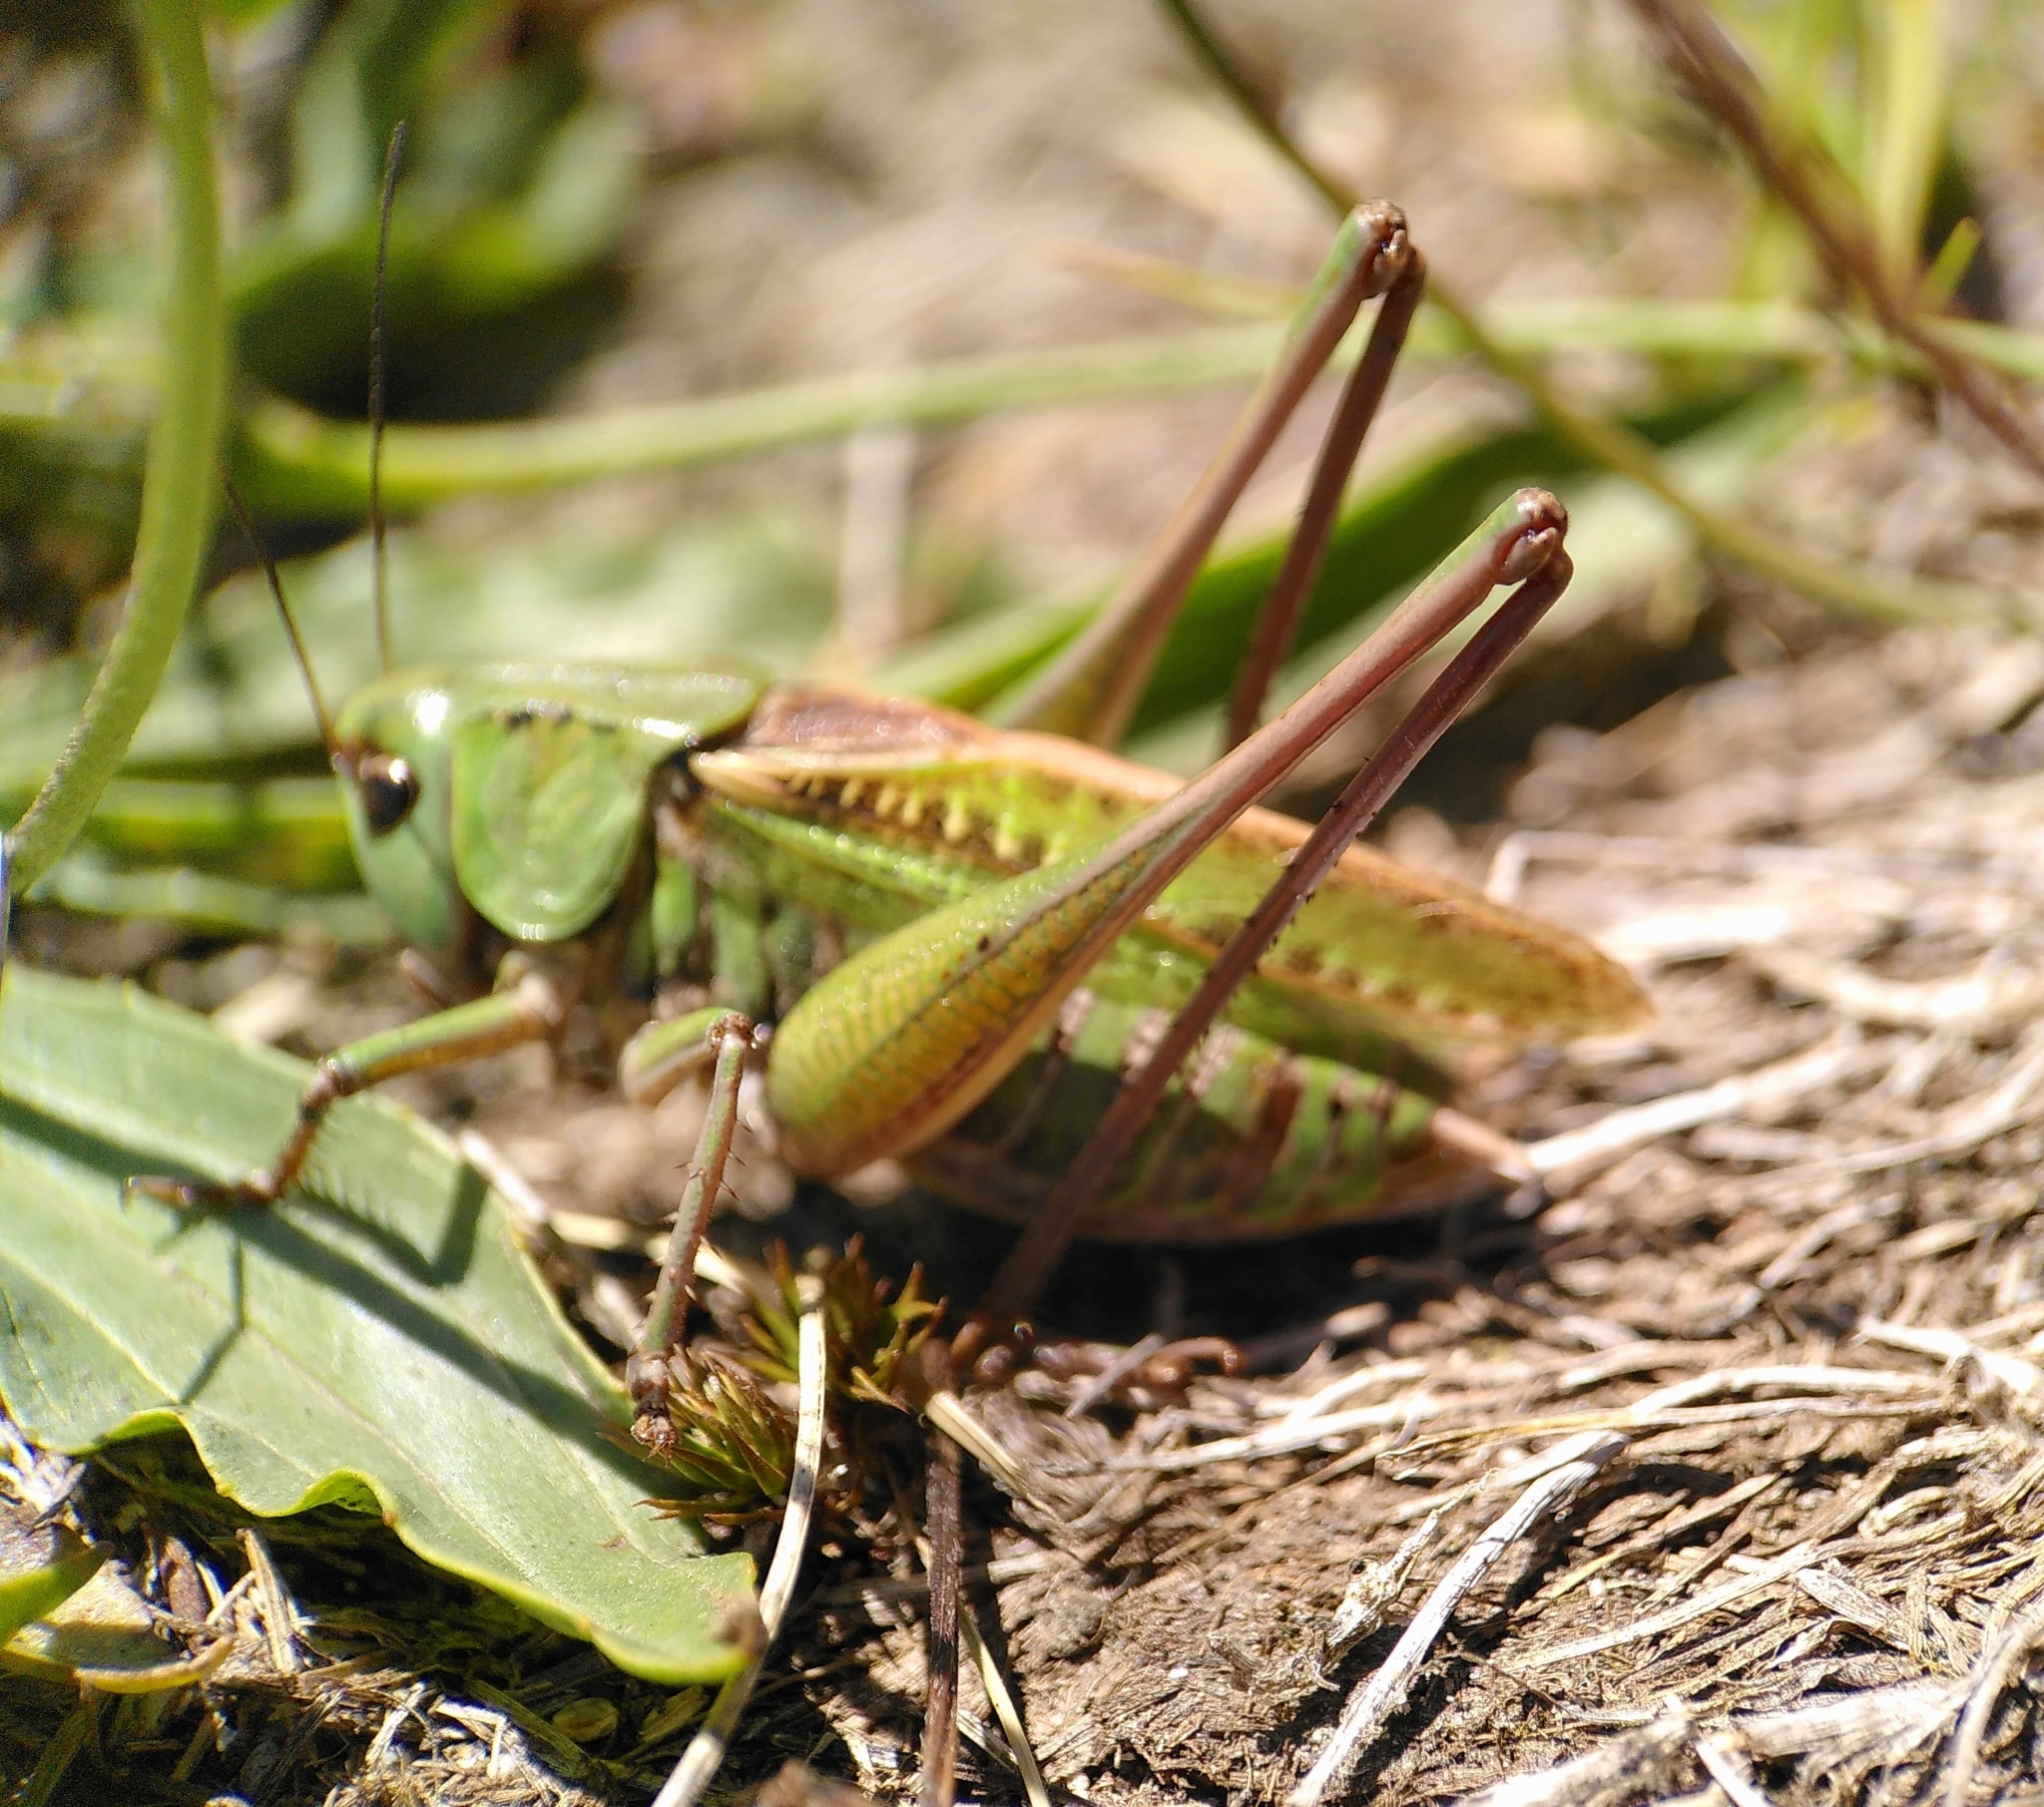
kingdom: Animalia
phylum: Arthropoda
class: Insecta
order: Orthoptera
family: Tettigoniidae
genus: Decticus
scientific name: Decticus verrucivorus
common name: Wart-biter
